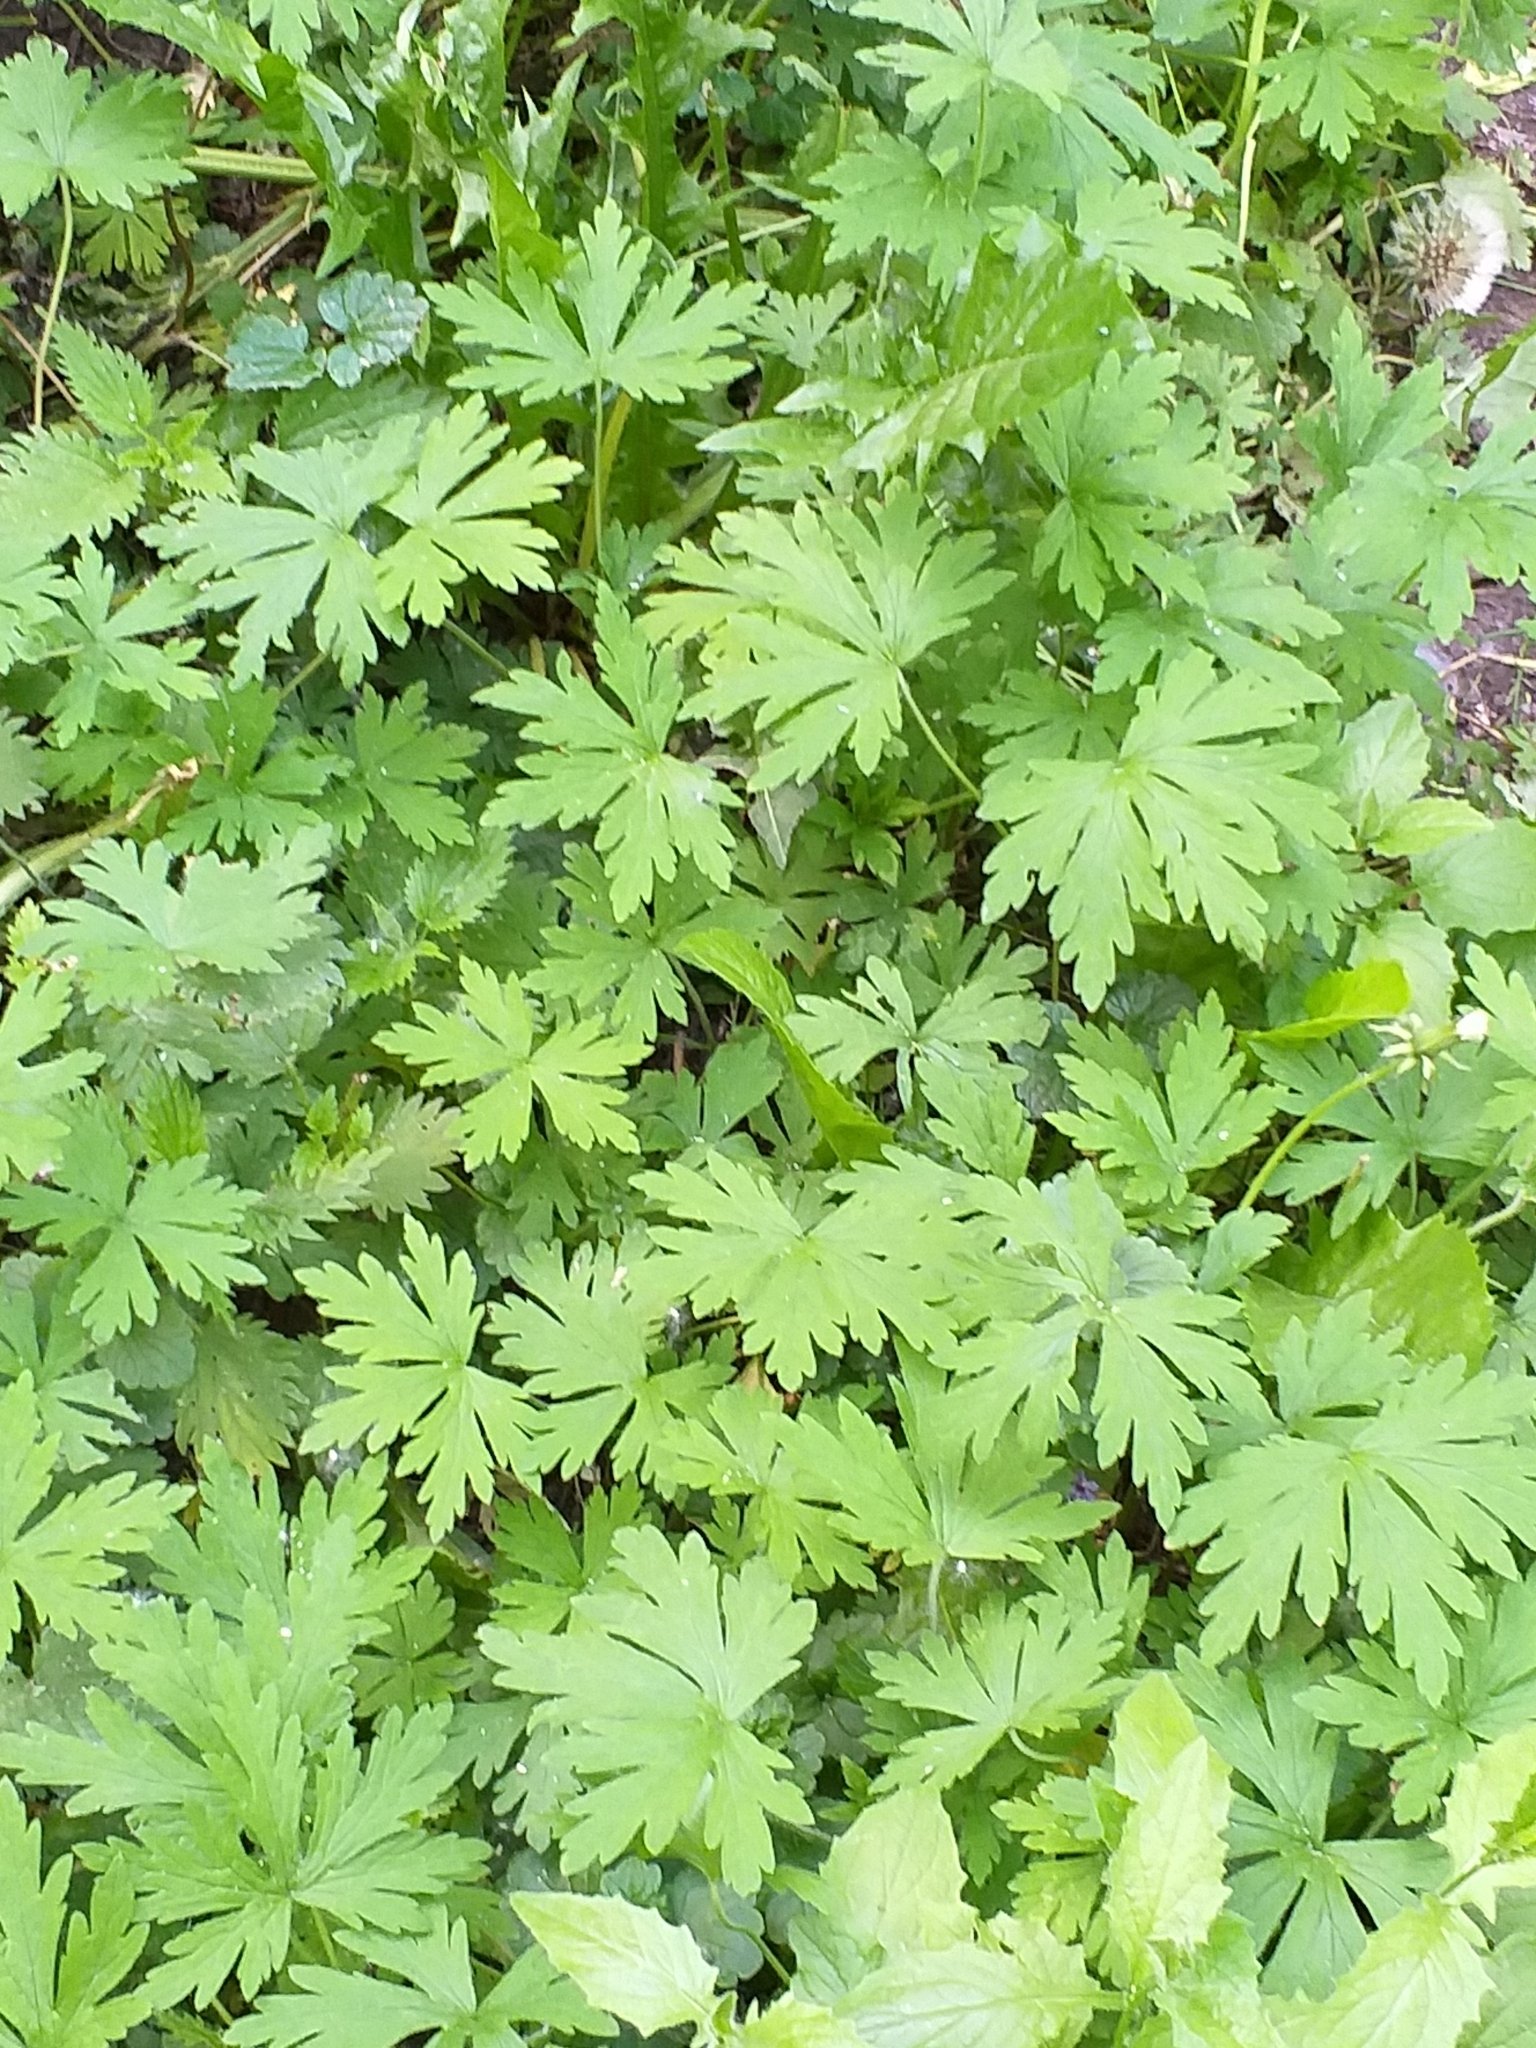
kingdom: Plantae
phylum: Tracheophyta
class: Magnoliopsida
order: Geraniales
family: Geraniaceae
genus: Geranium
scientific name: Geranium sibiricum
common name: Siberian crane's-bill
